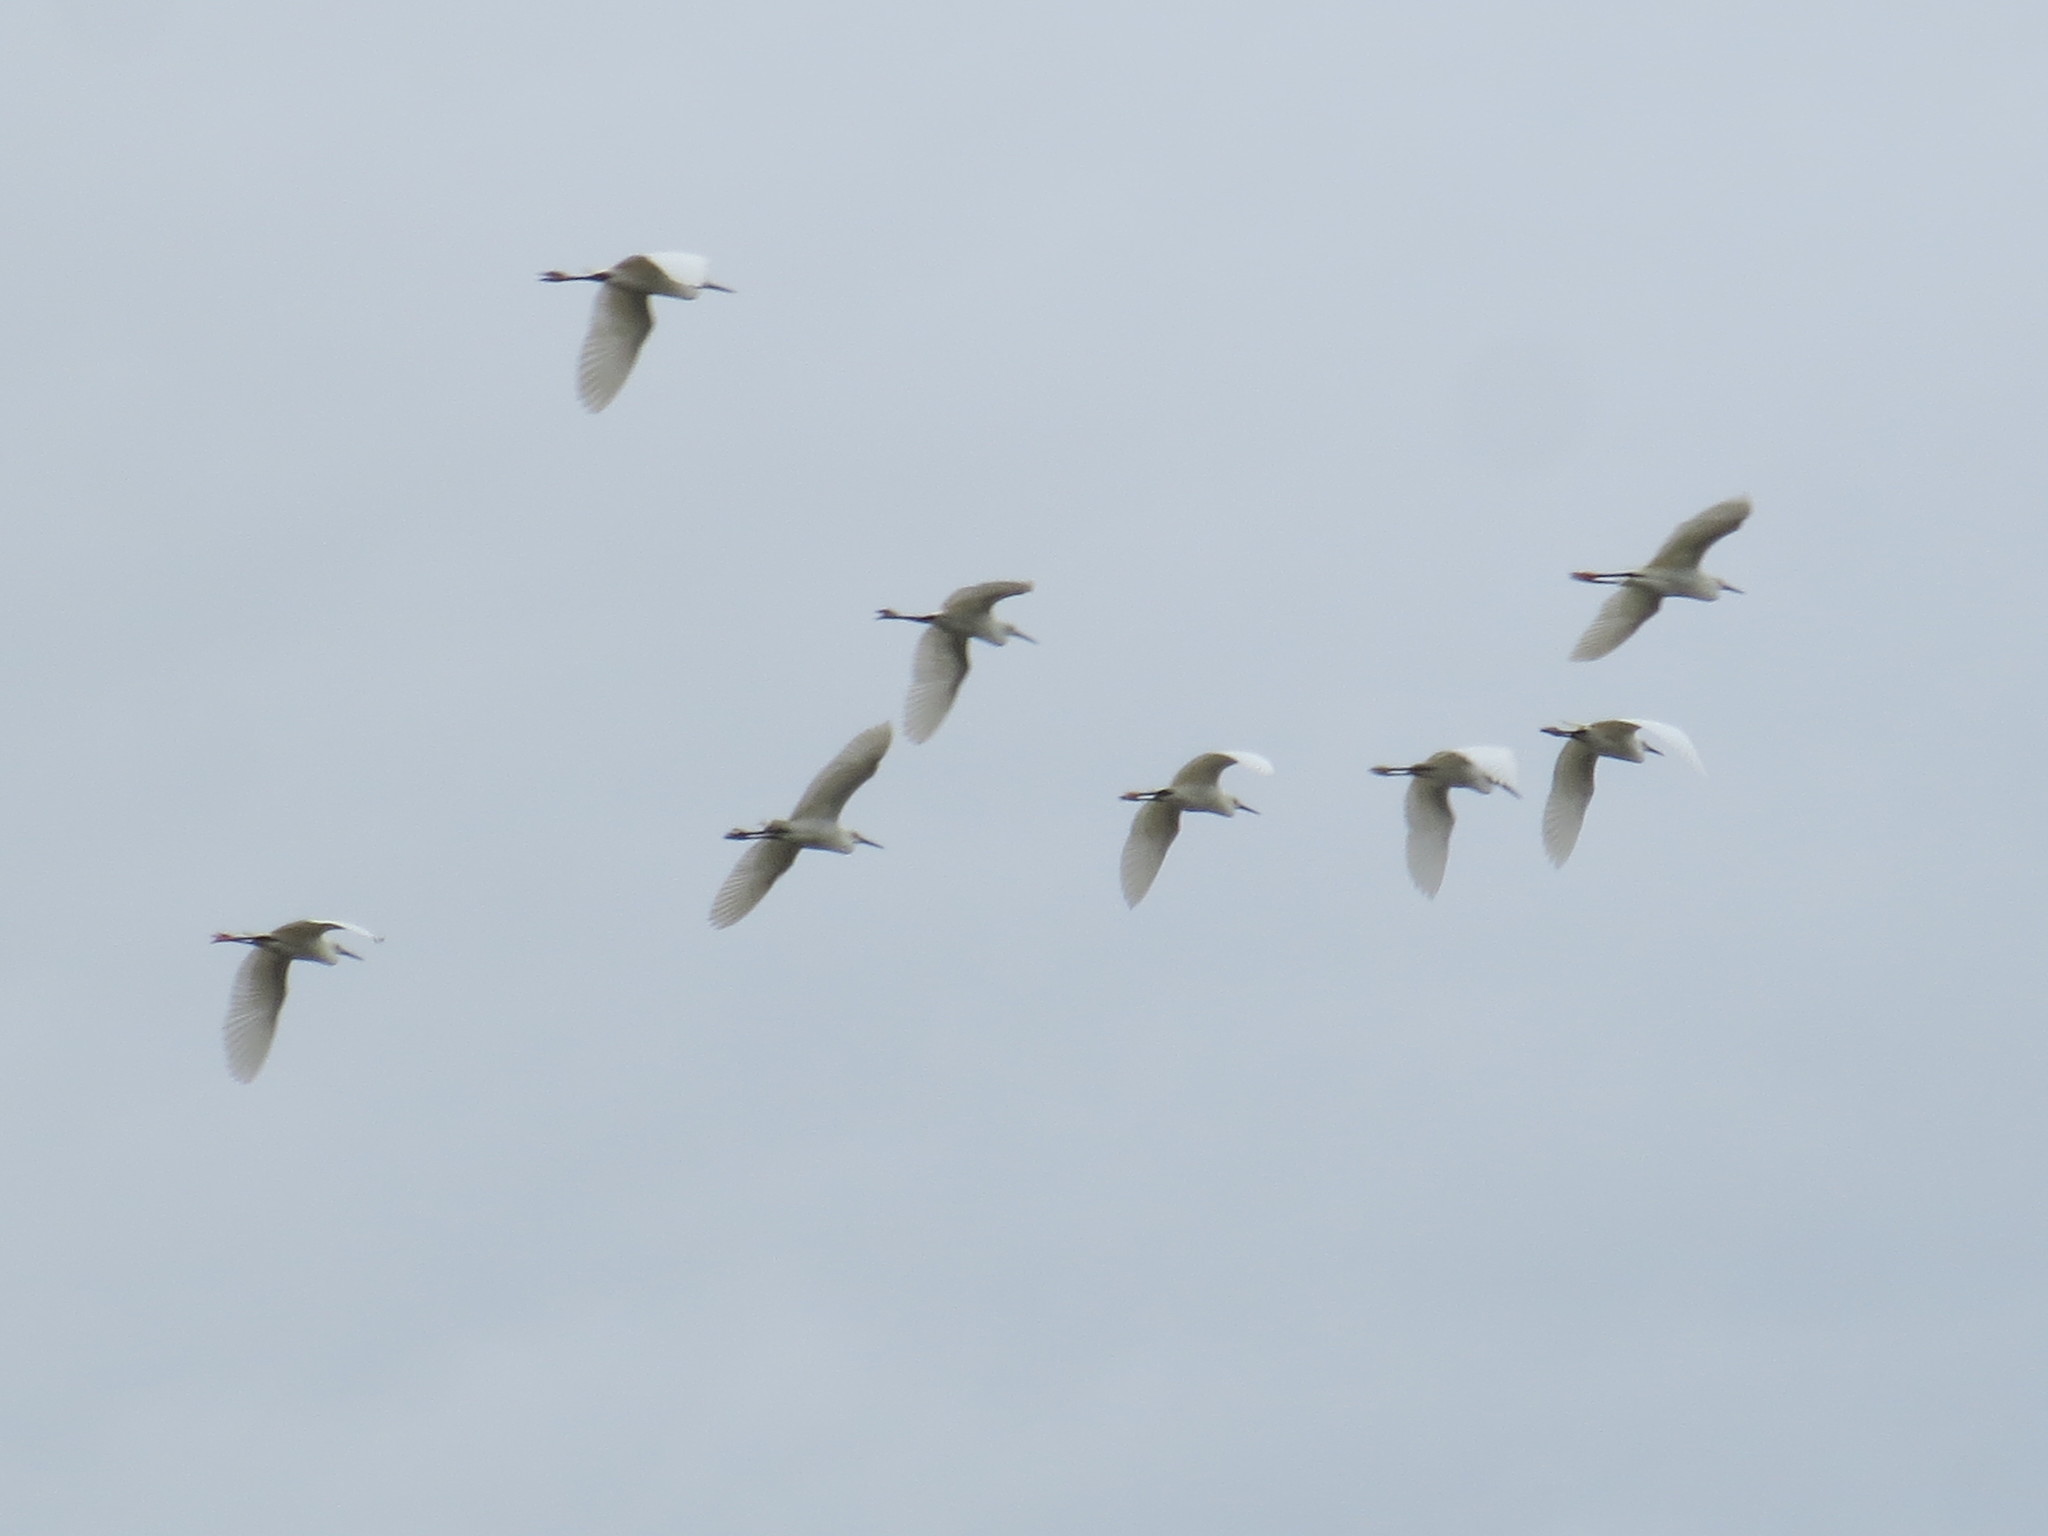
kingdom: Animalia
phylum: Chordata
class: Aves
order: Pelecaniformes
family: Ardeidae
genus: Egretta
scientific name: Egretta thula
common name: Snowy egret
